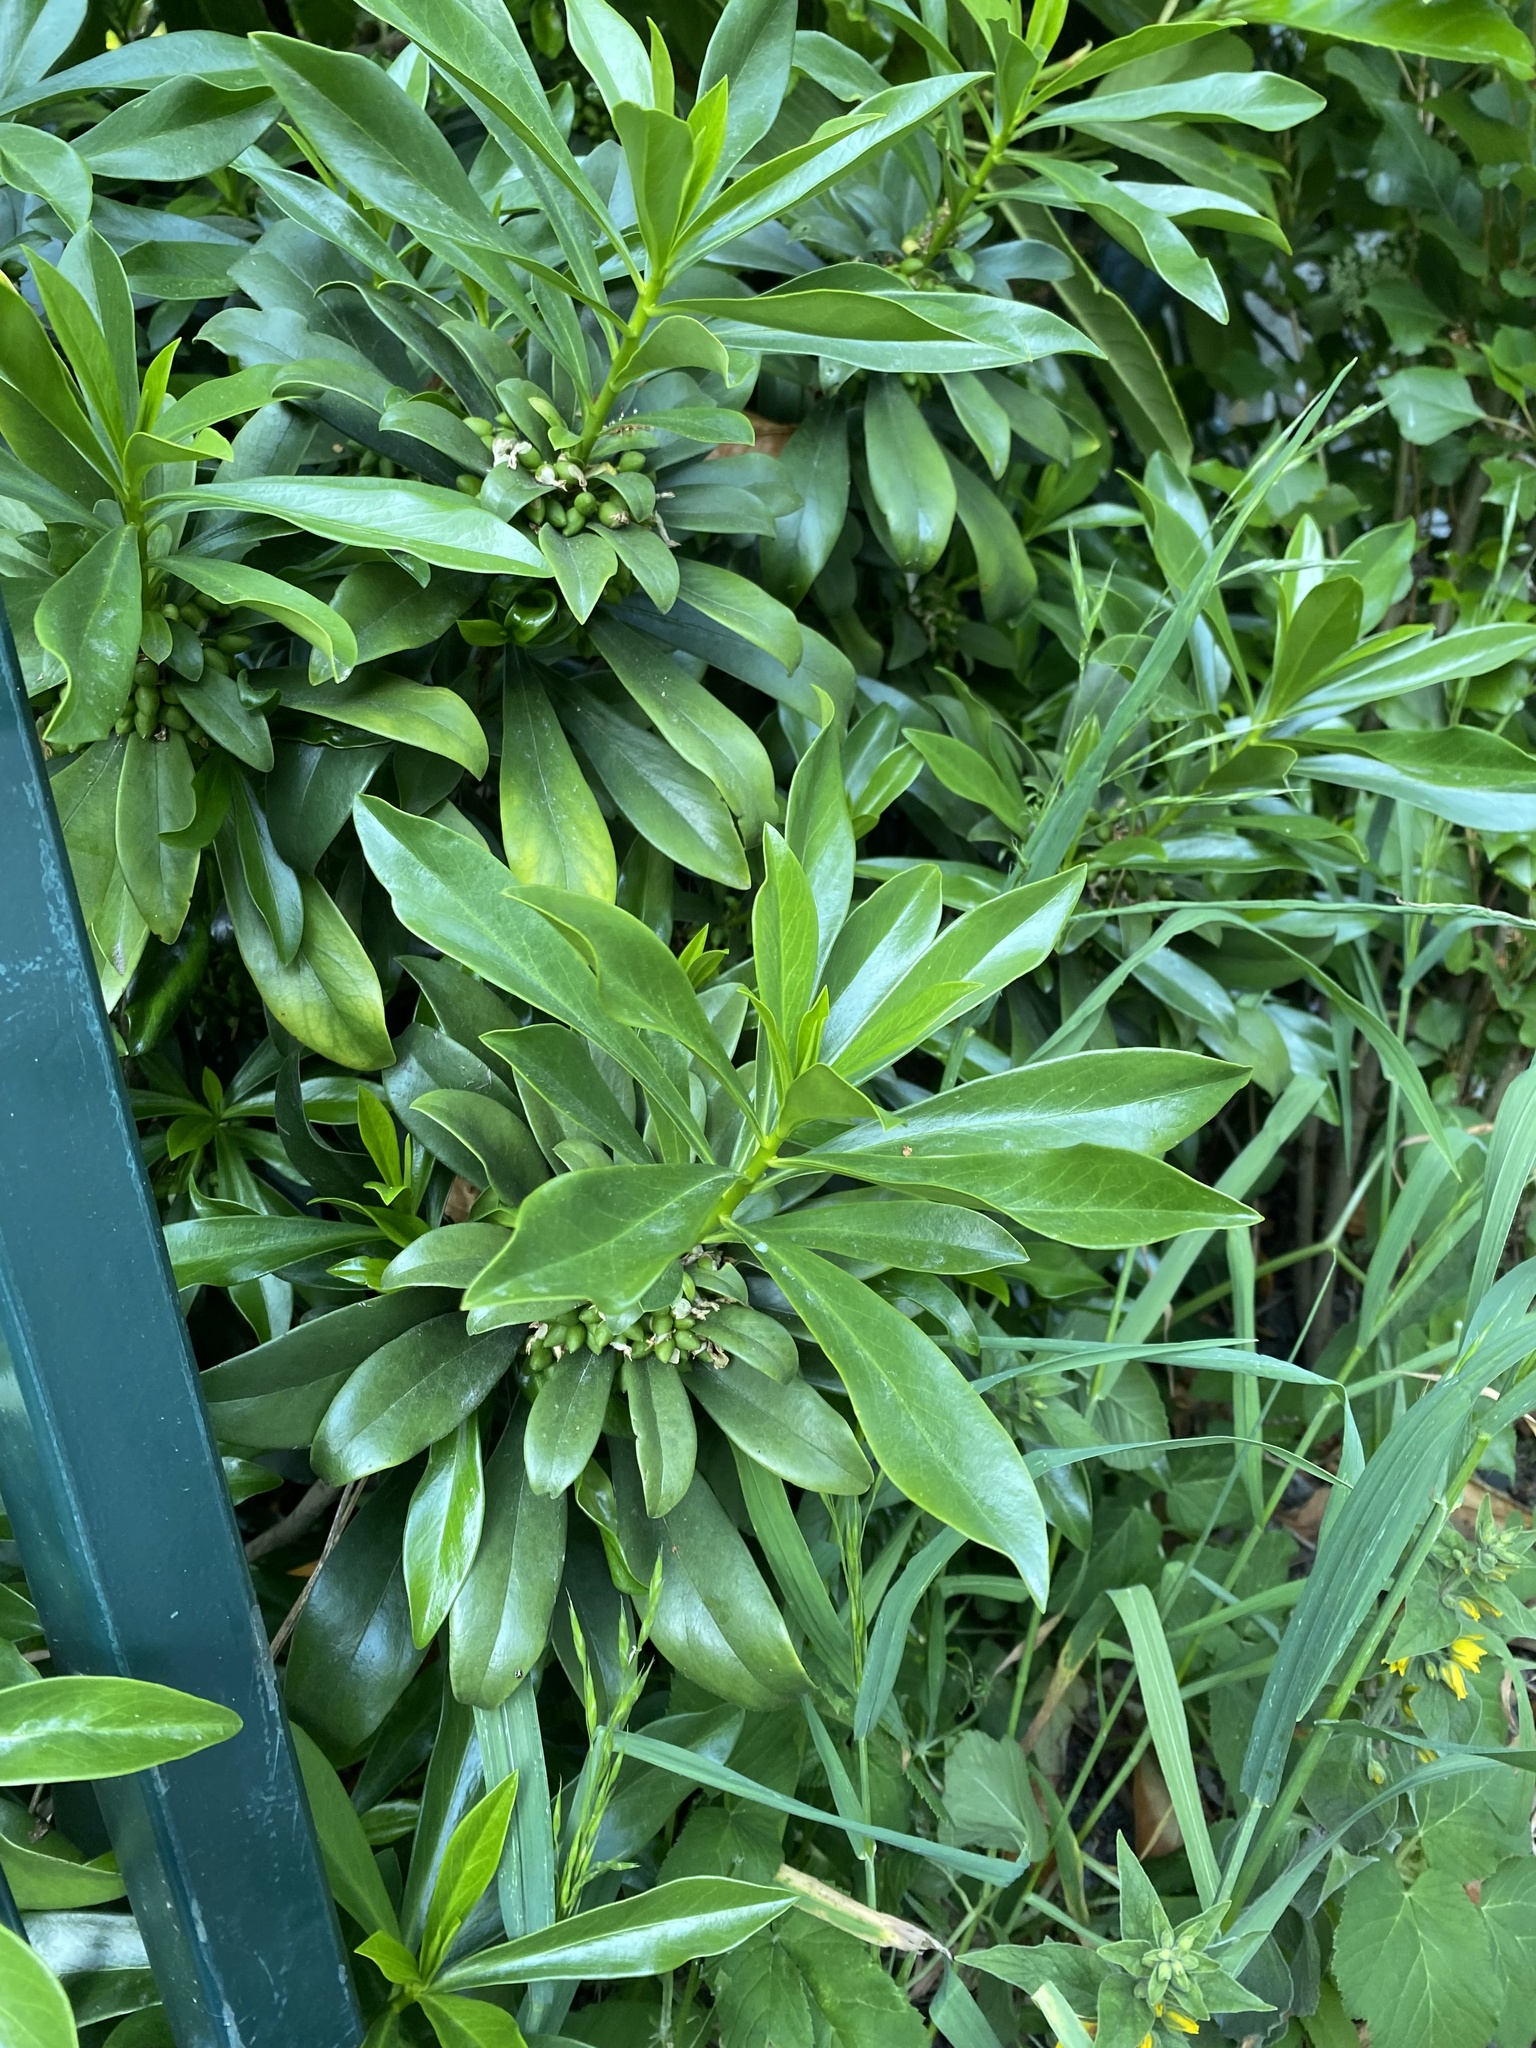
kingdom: Plantae
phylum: Tracheophyta
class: Magnoliopsida
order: Malvales
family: Thymelaeaceae
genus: Daphne
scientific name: Daphne laureola
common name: Spurge-laurel
